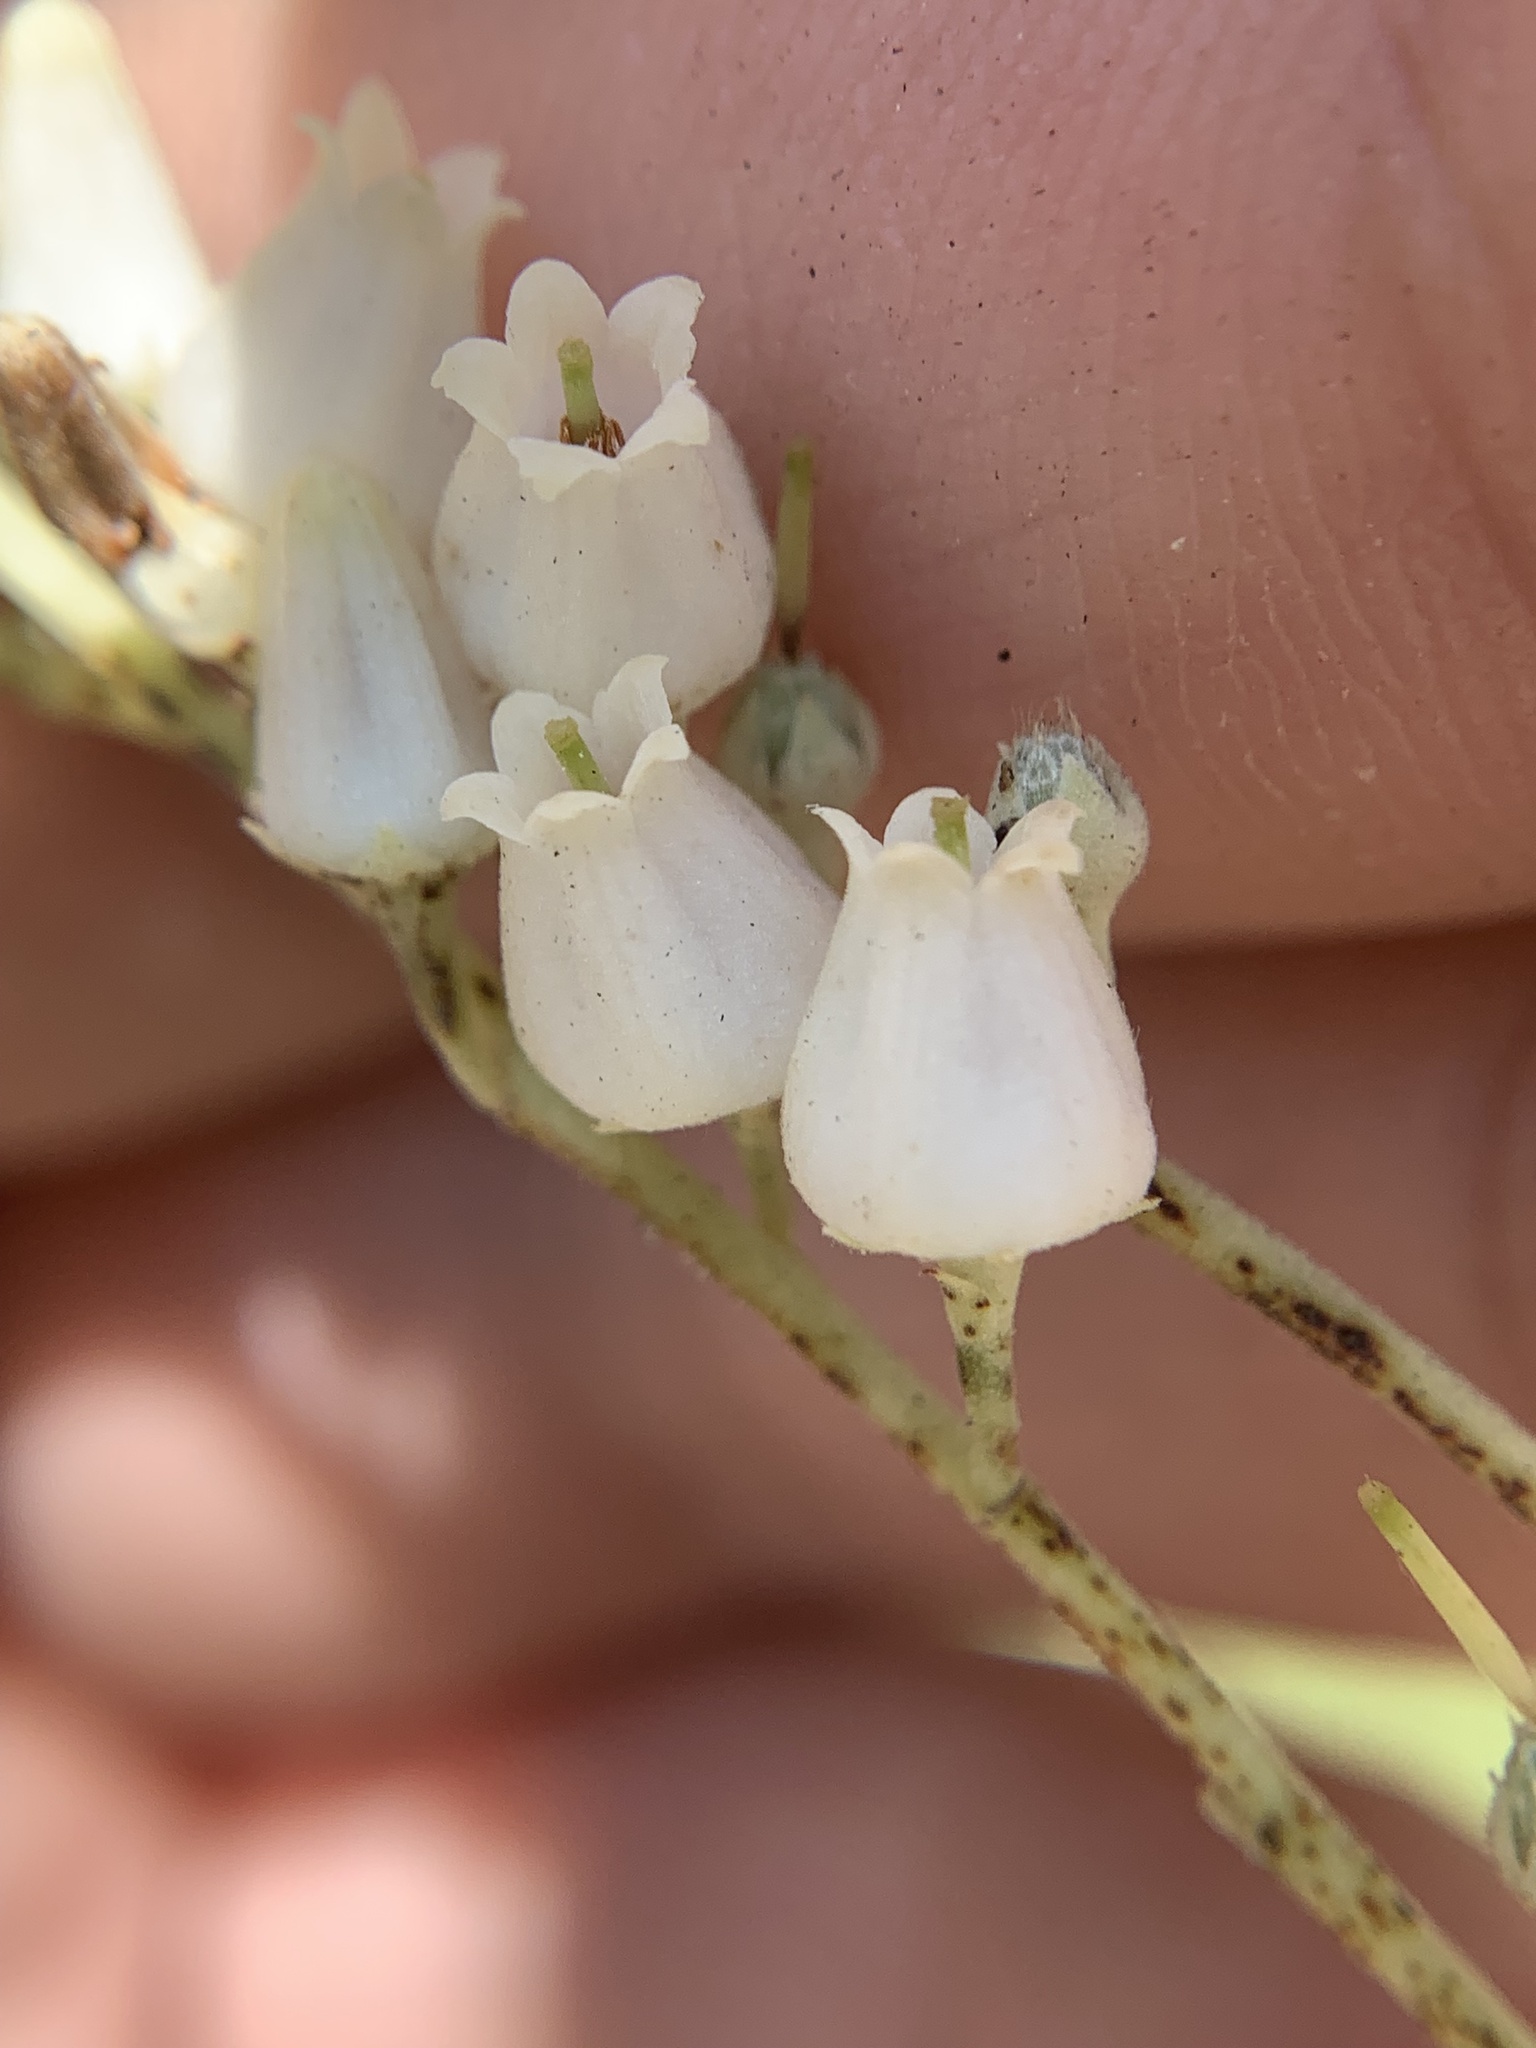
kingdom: Plantae
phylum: Tracheophyta
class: Magnoliopsida
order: Ericales
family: Ericaceae
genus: Oxydendrum
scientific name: Oxydendrum arboreum
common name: Sourwood
